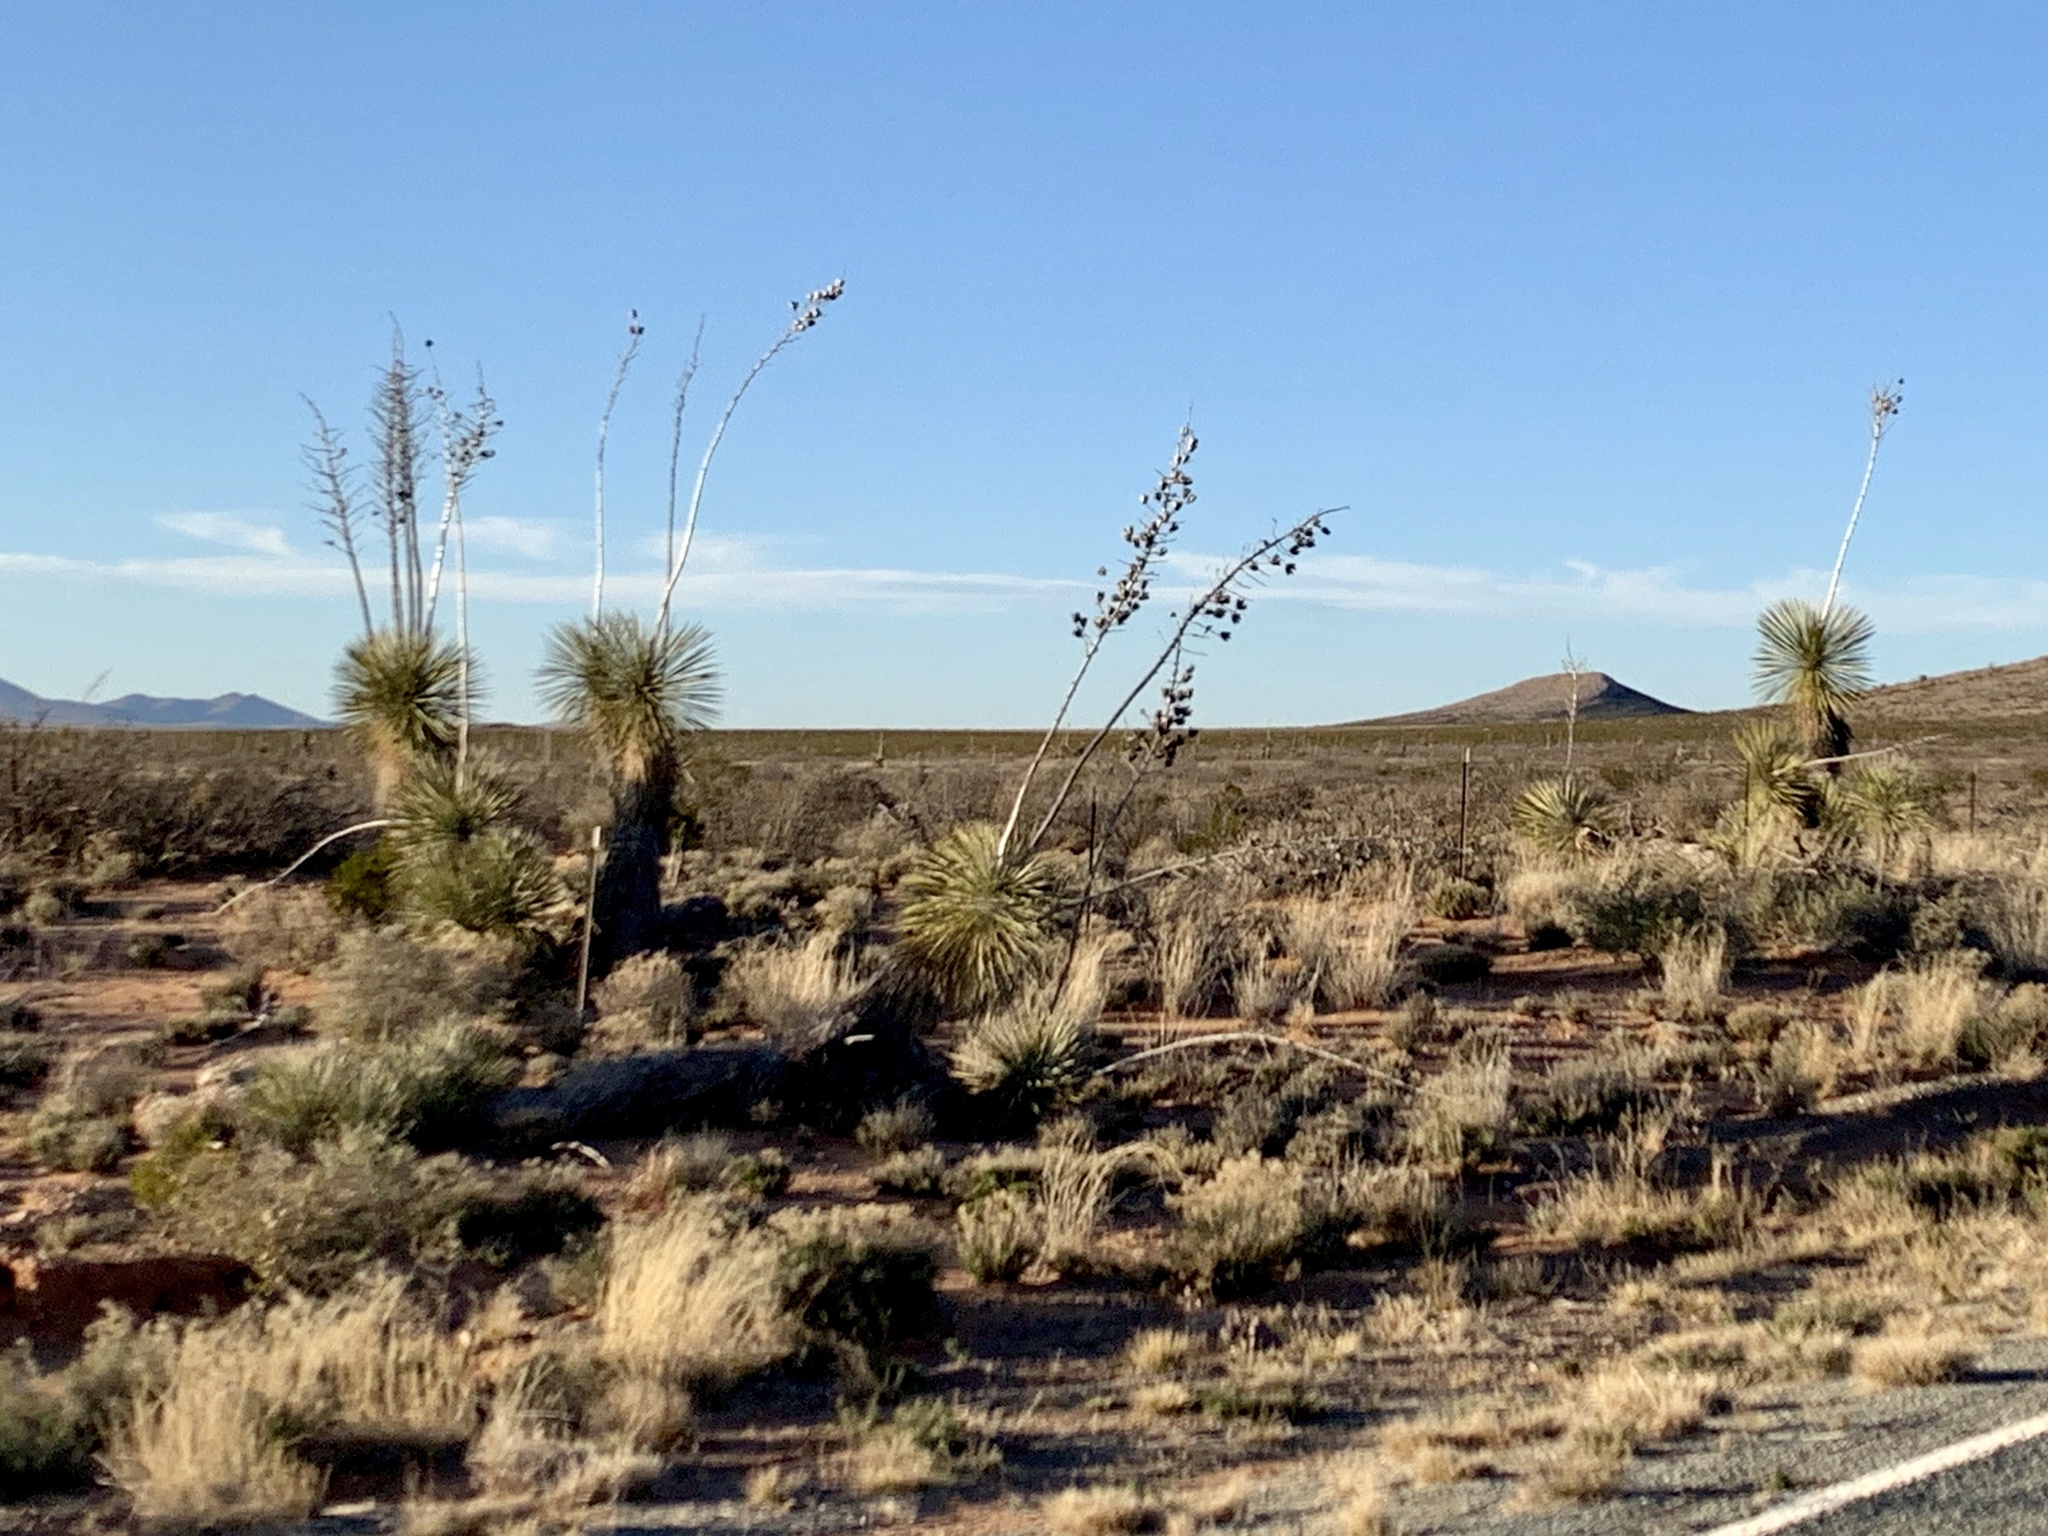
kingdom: Plantae
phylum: Tracheophyta
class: Liliopsida
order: Asparagales
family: Asparagaceae
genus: Yucca
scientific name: Yucca elata
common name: Palmella
